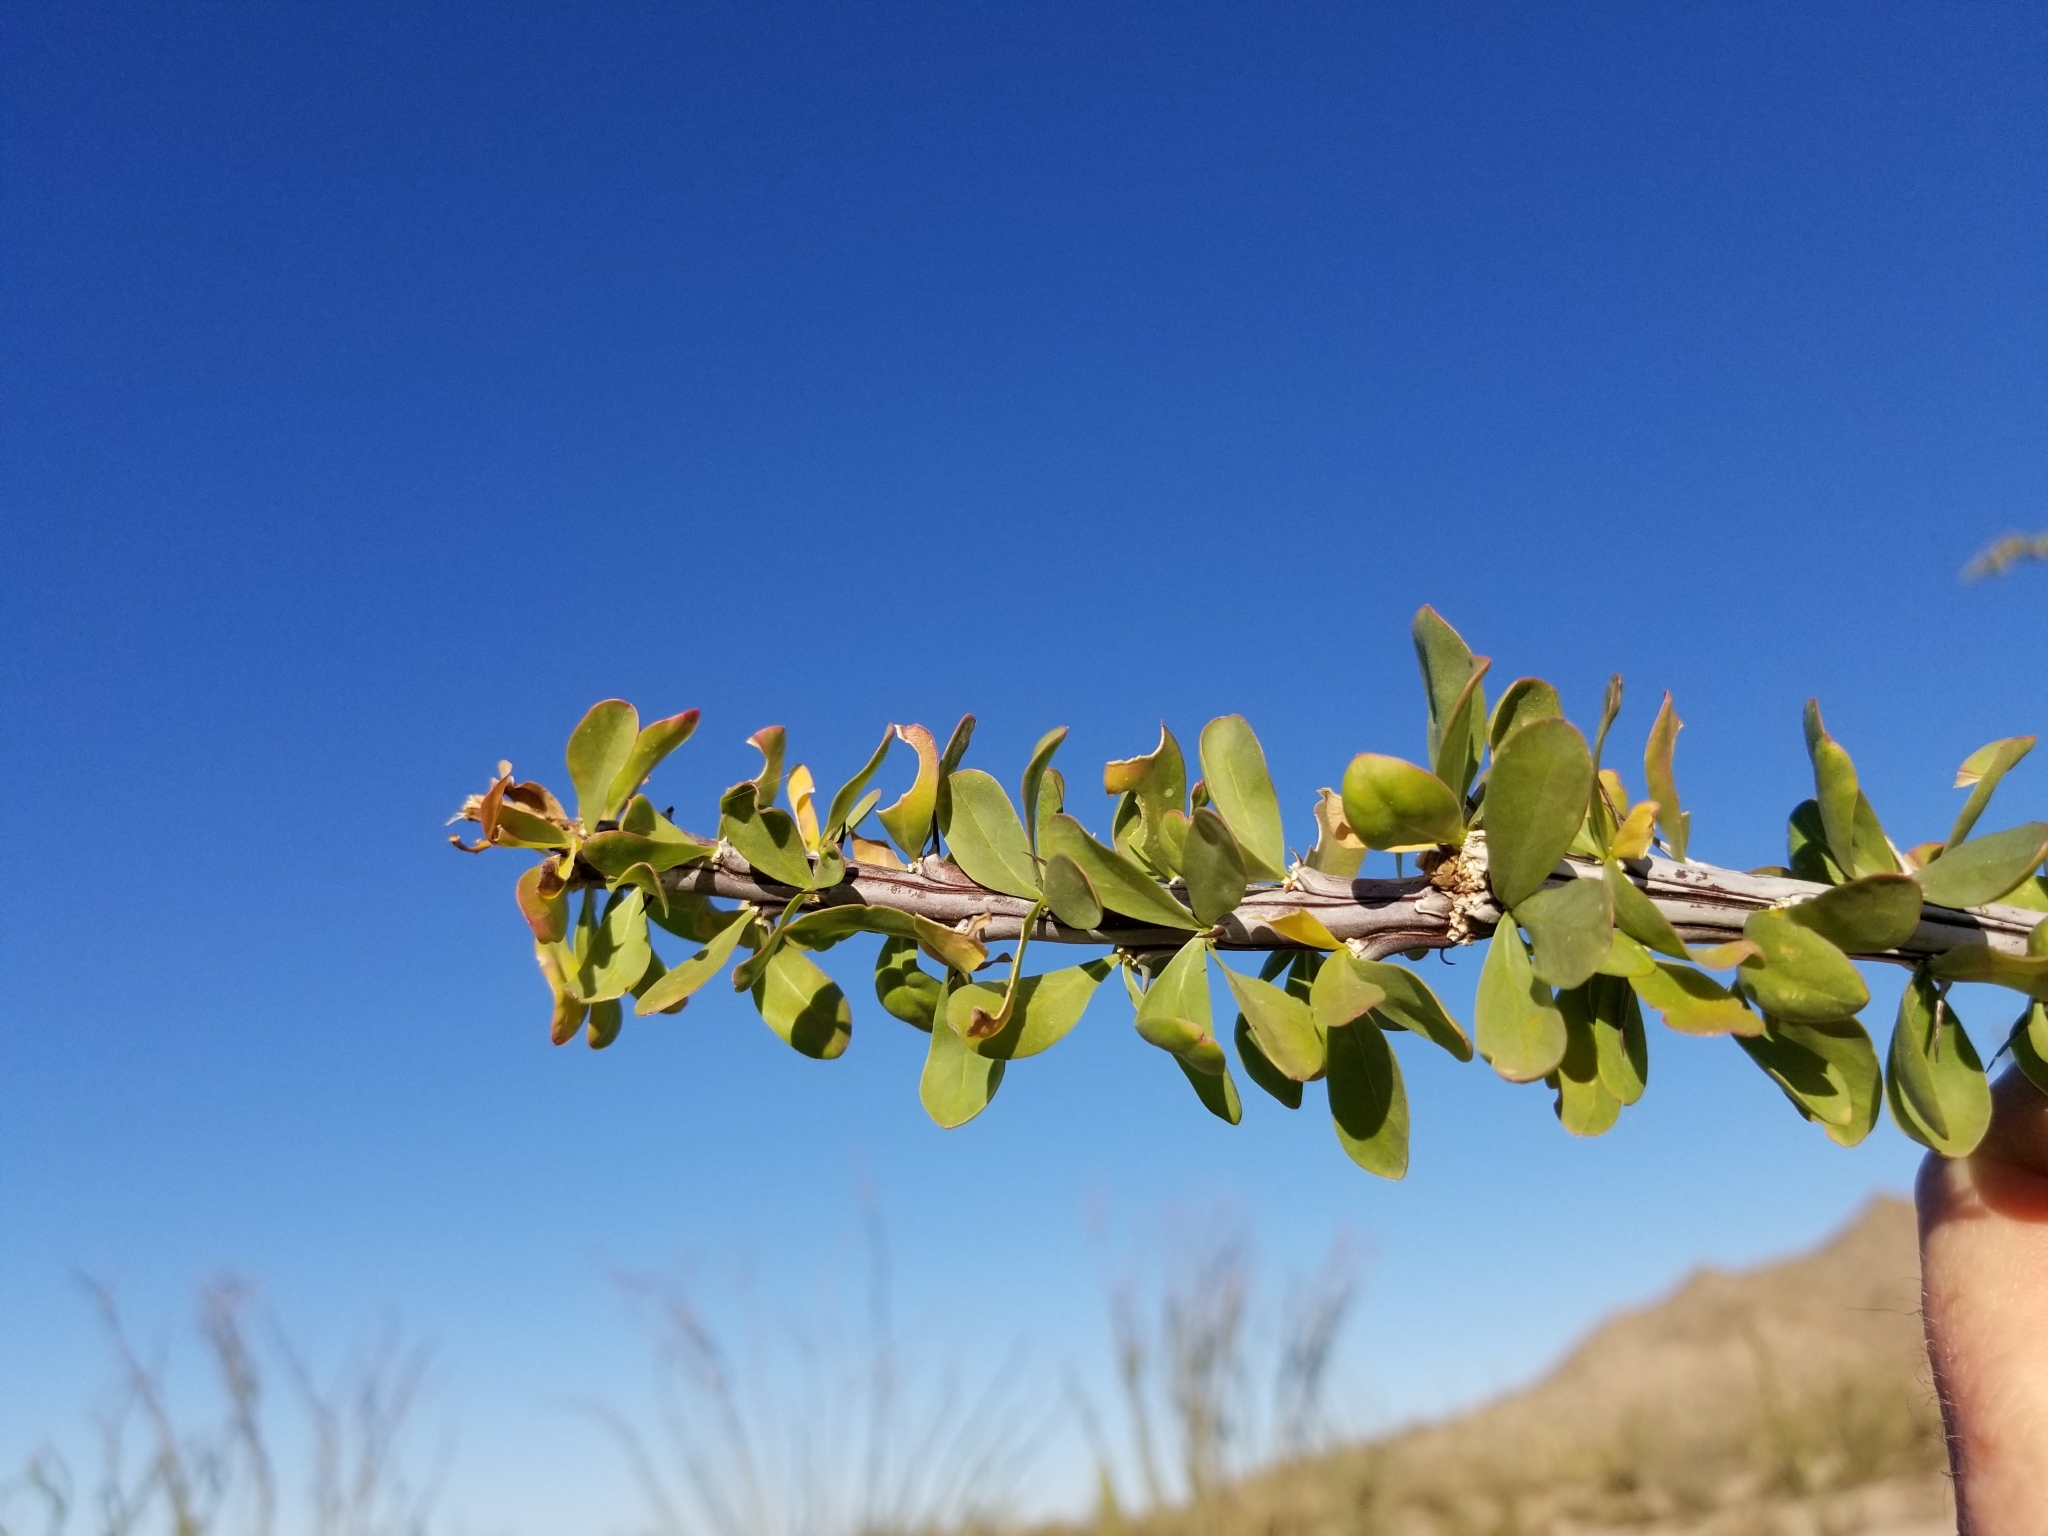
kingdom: Plantae
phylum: Tracheophyta
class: Magnoliopsida
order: Ericales
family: Fouquieriaceae
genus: Fouquieria
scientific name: Fouquieria splendens
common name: Vine-cactus
